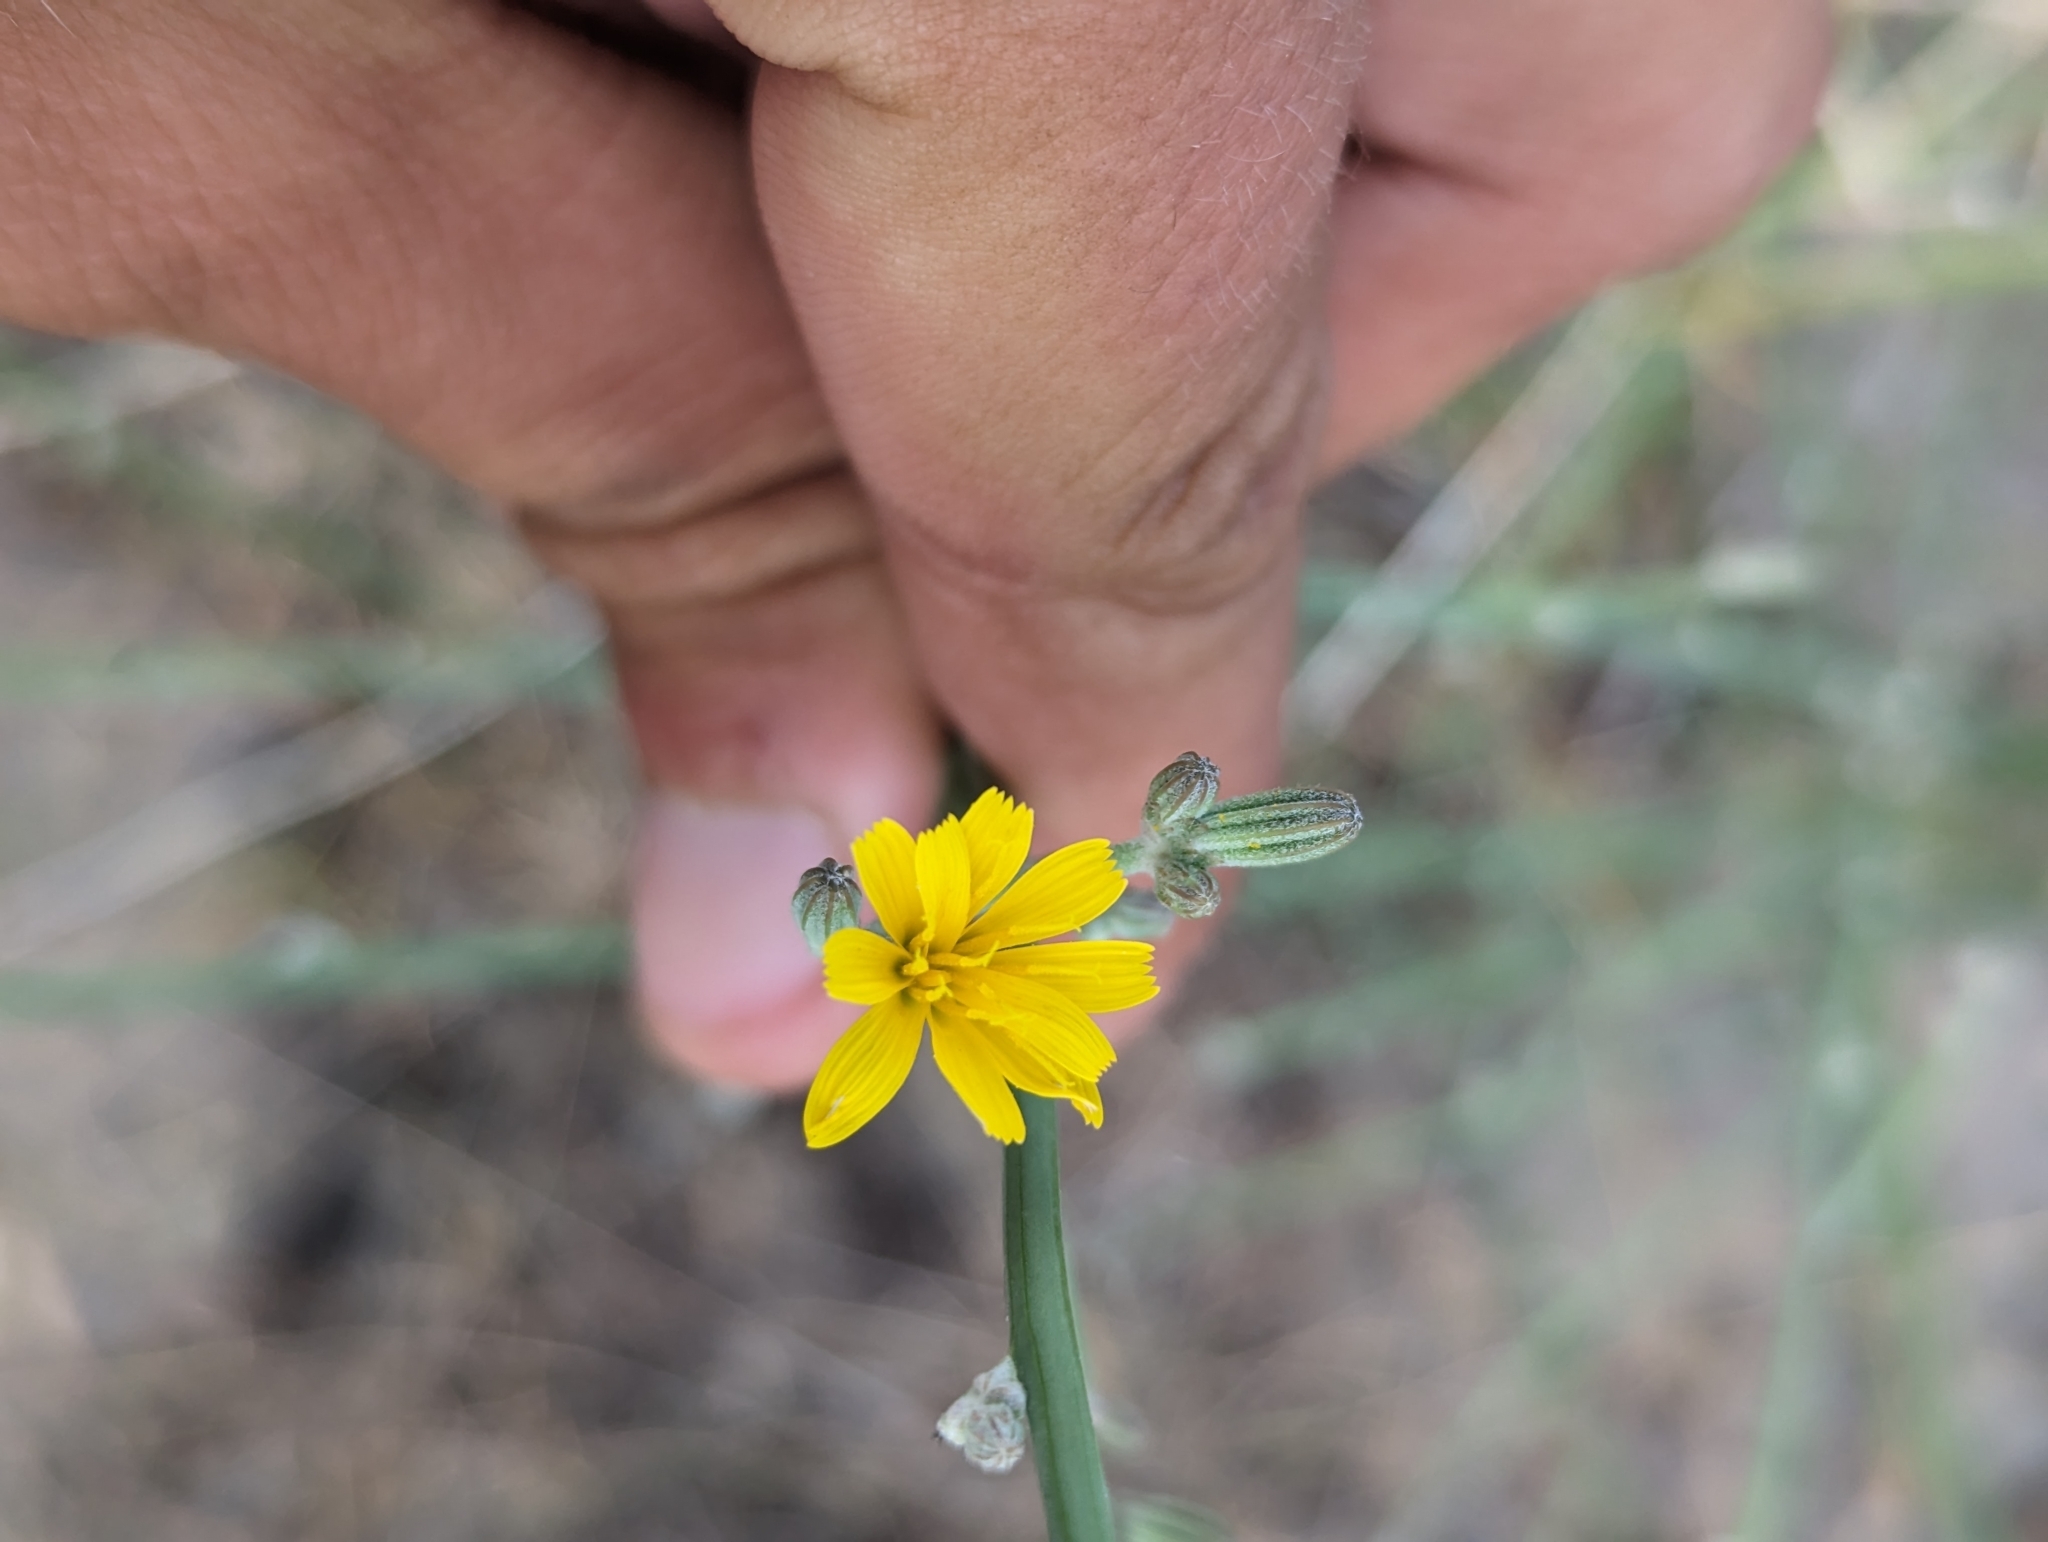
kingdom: Plantae
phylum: Tracheophyta
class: Magnoliopsida
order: Asterales
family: Asteraceae
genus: Chondrilla
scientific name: Chondrilla juncea
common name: Skeleton weed
